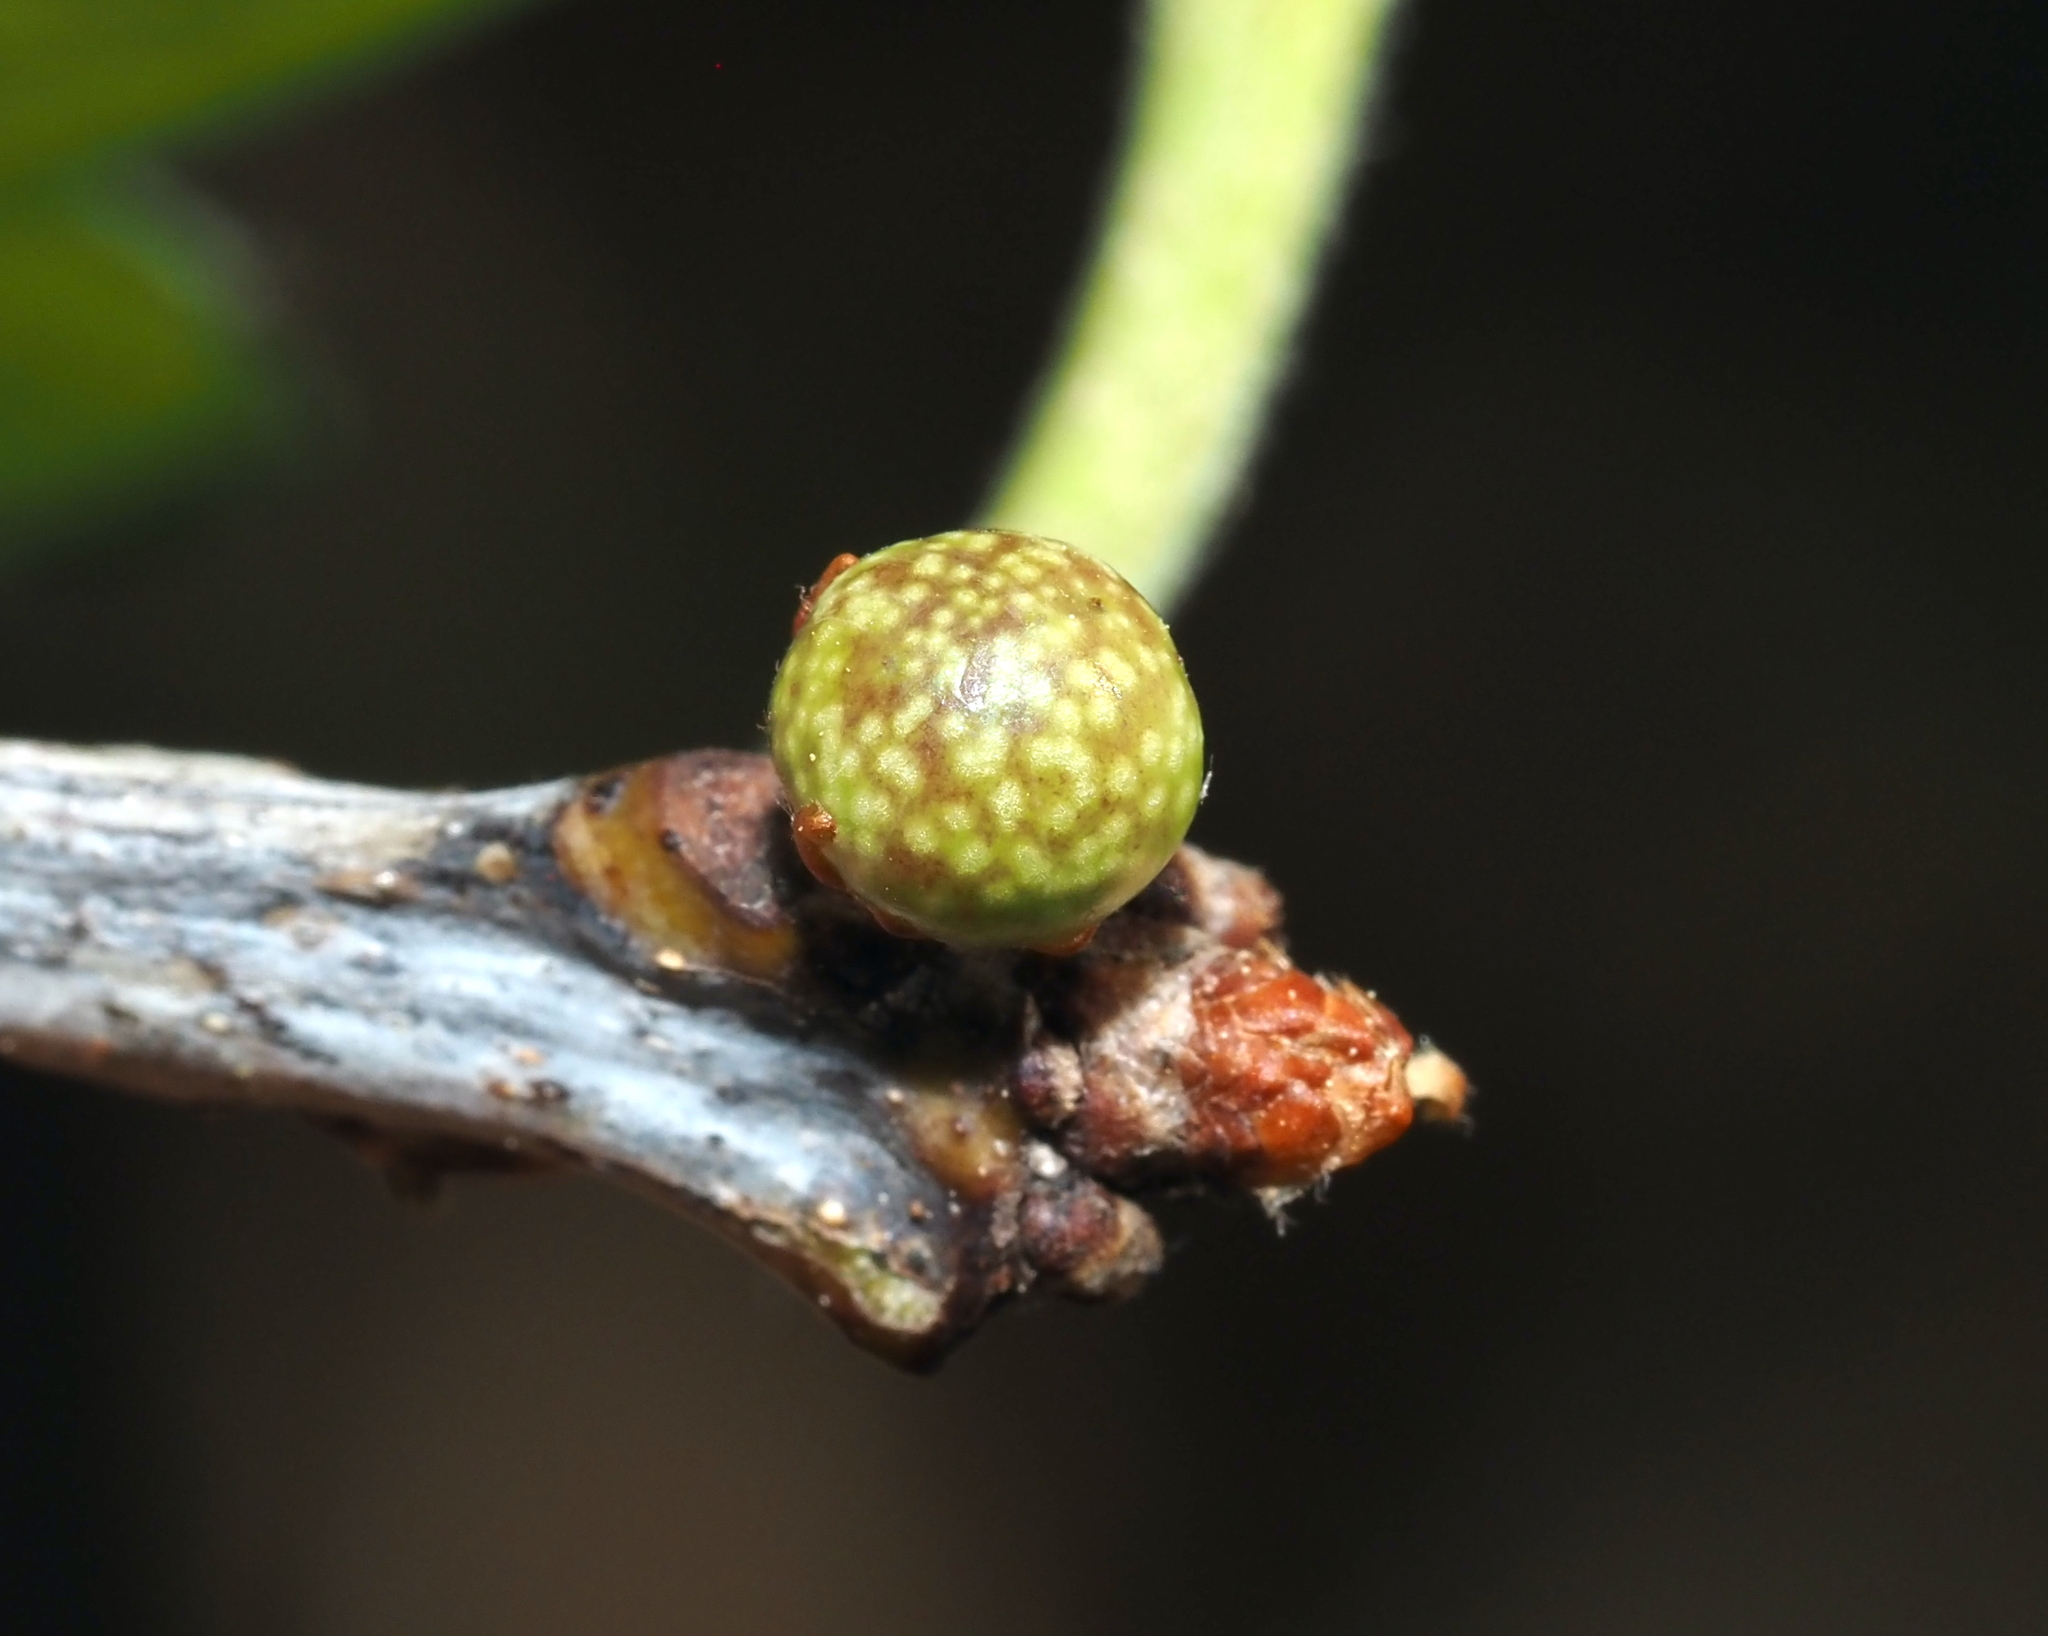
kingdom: Animalia
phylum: Arthropoda
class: Insecta
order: Hymenoptera
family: Cynipidae
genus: Andricus
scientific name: Andricus
